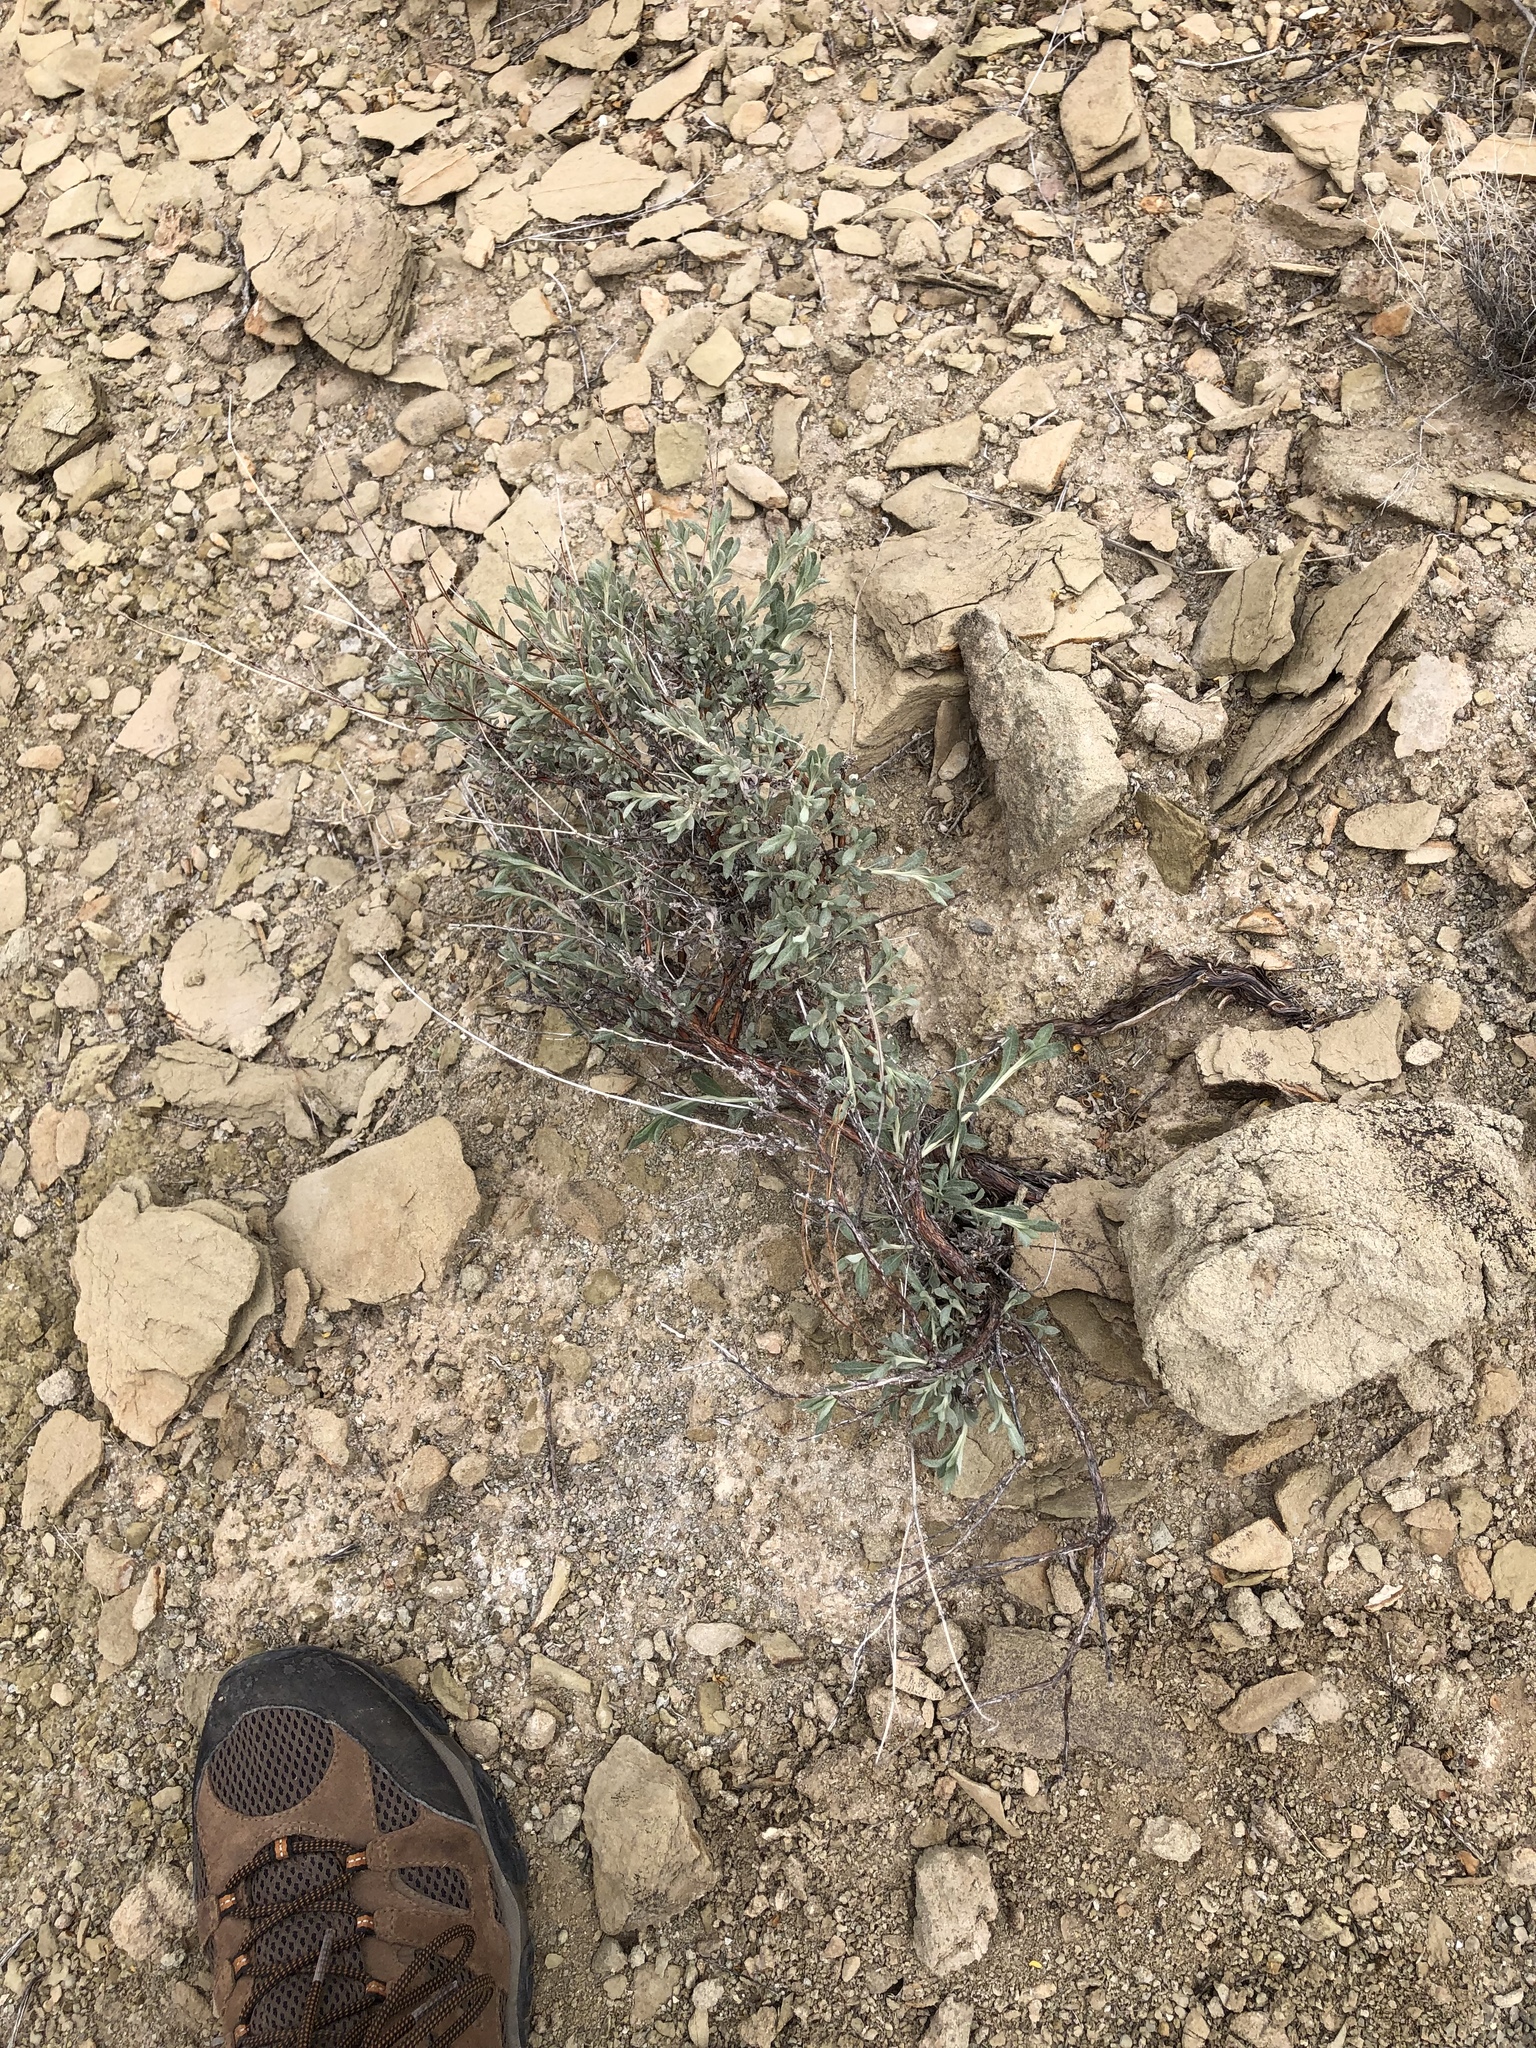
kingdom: Plantae
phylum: Tracheophyta
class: Magnoliopsida
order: Caryophyllales
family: Polygonaceae
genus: Eriogonum
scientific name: Eriogonum wrightii
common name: Bastard-sage
